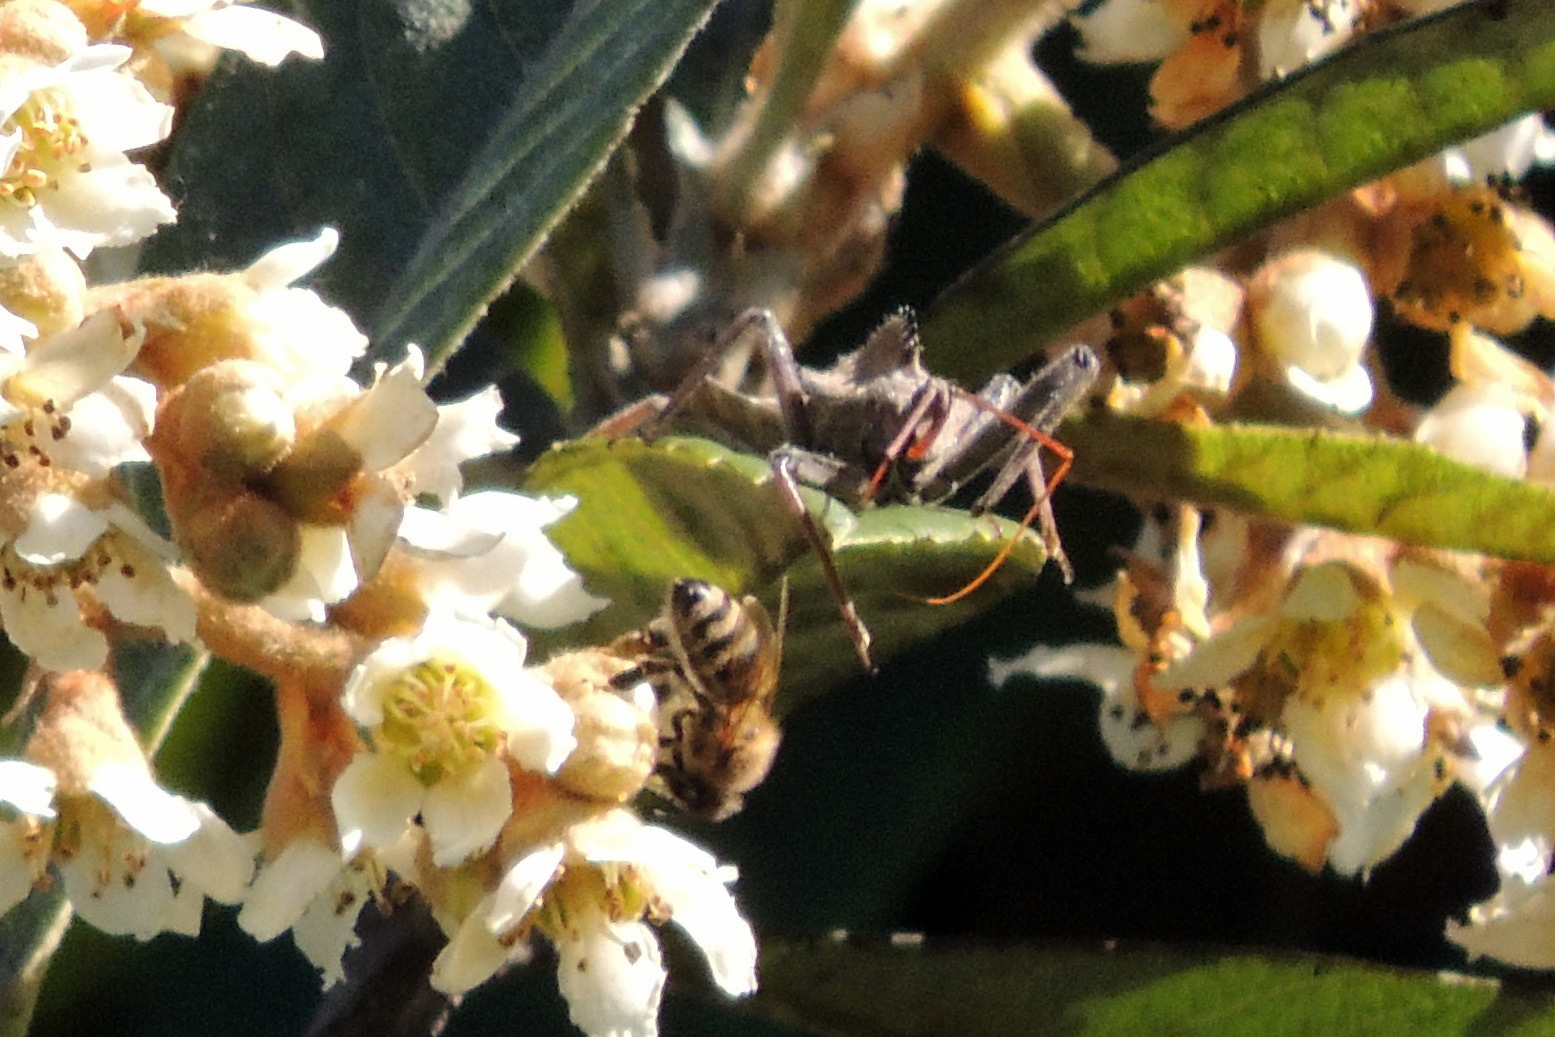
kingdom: Animalia
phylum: Arthropoda
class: Insecta
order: Hemiptera
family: Reduviidae
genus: Arilus
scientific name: Arilus cristatus
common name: North american wheel bug
